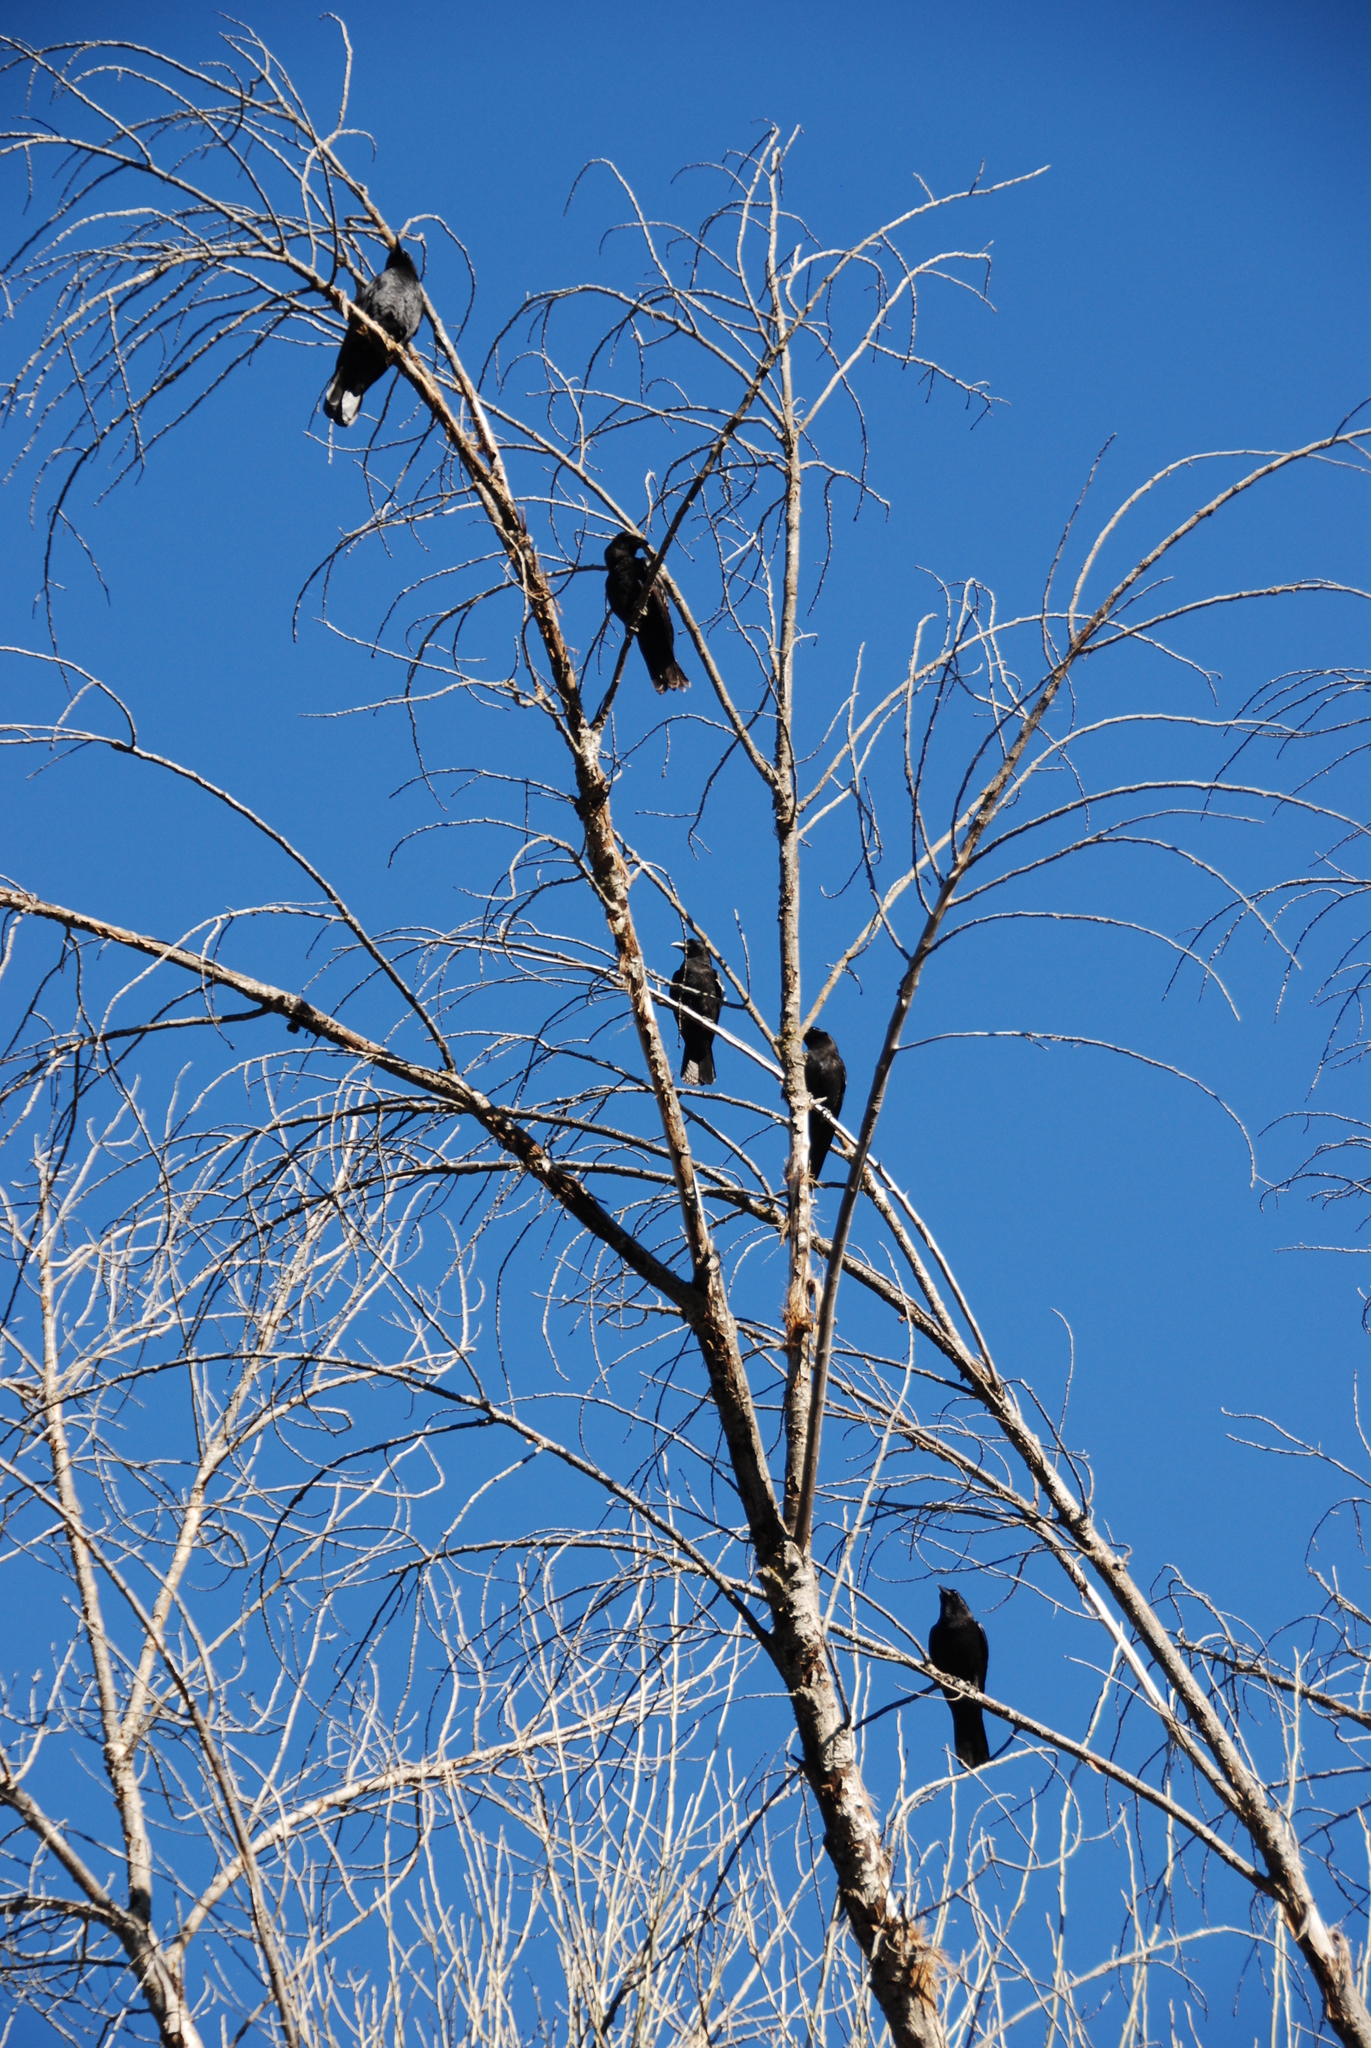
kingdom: Animalia
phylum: Chordata
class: Aves
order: Passeriformes
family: Corvidae
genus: Corvus
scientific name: Corvus brachyrhynchos
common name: American crow
